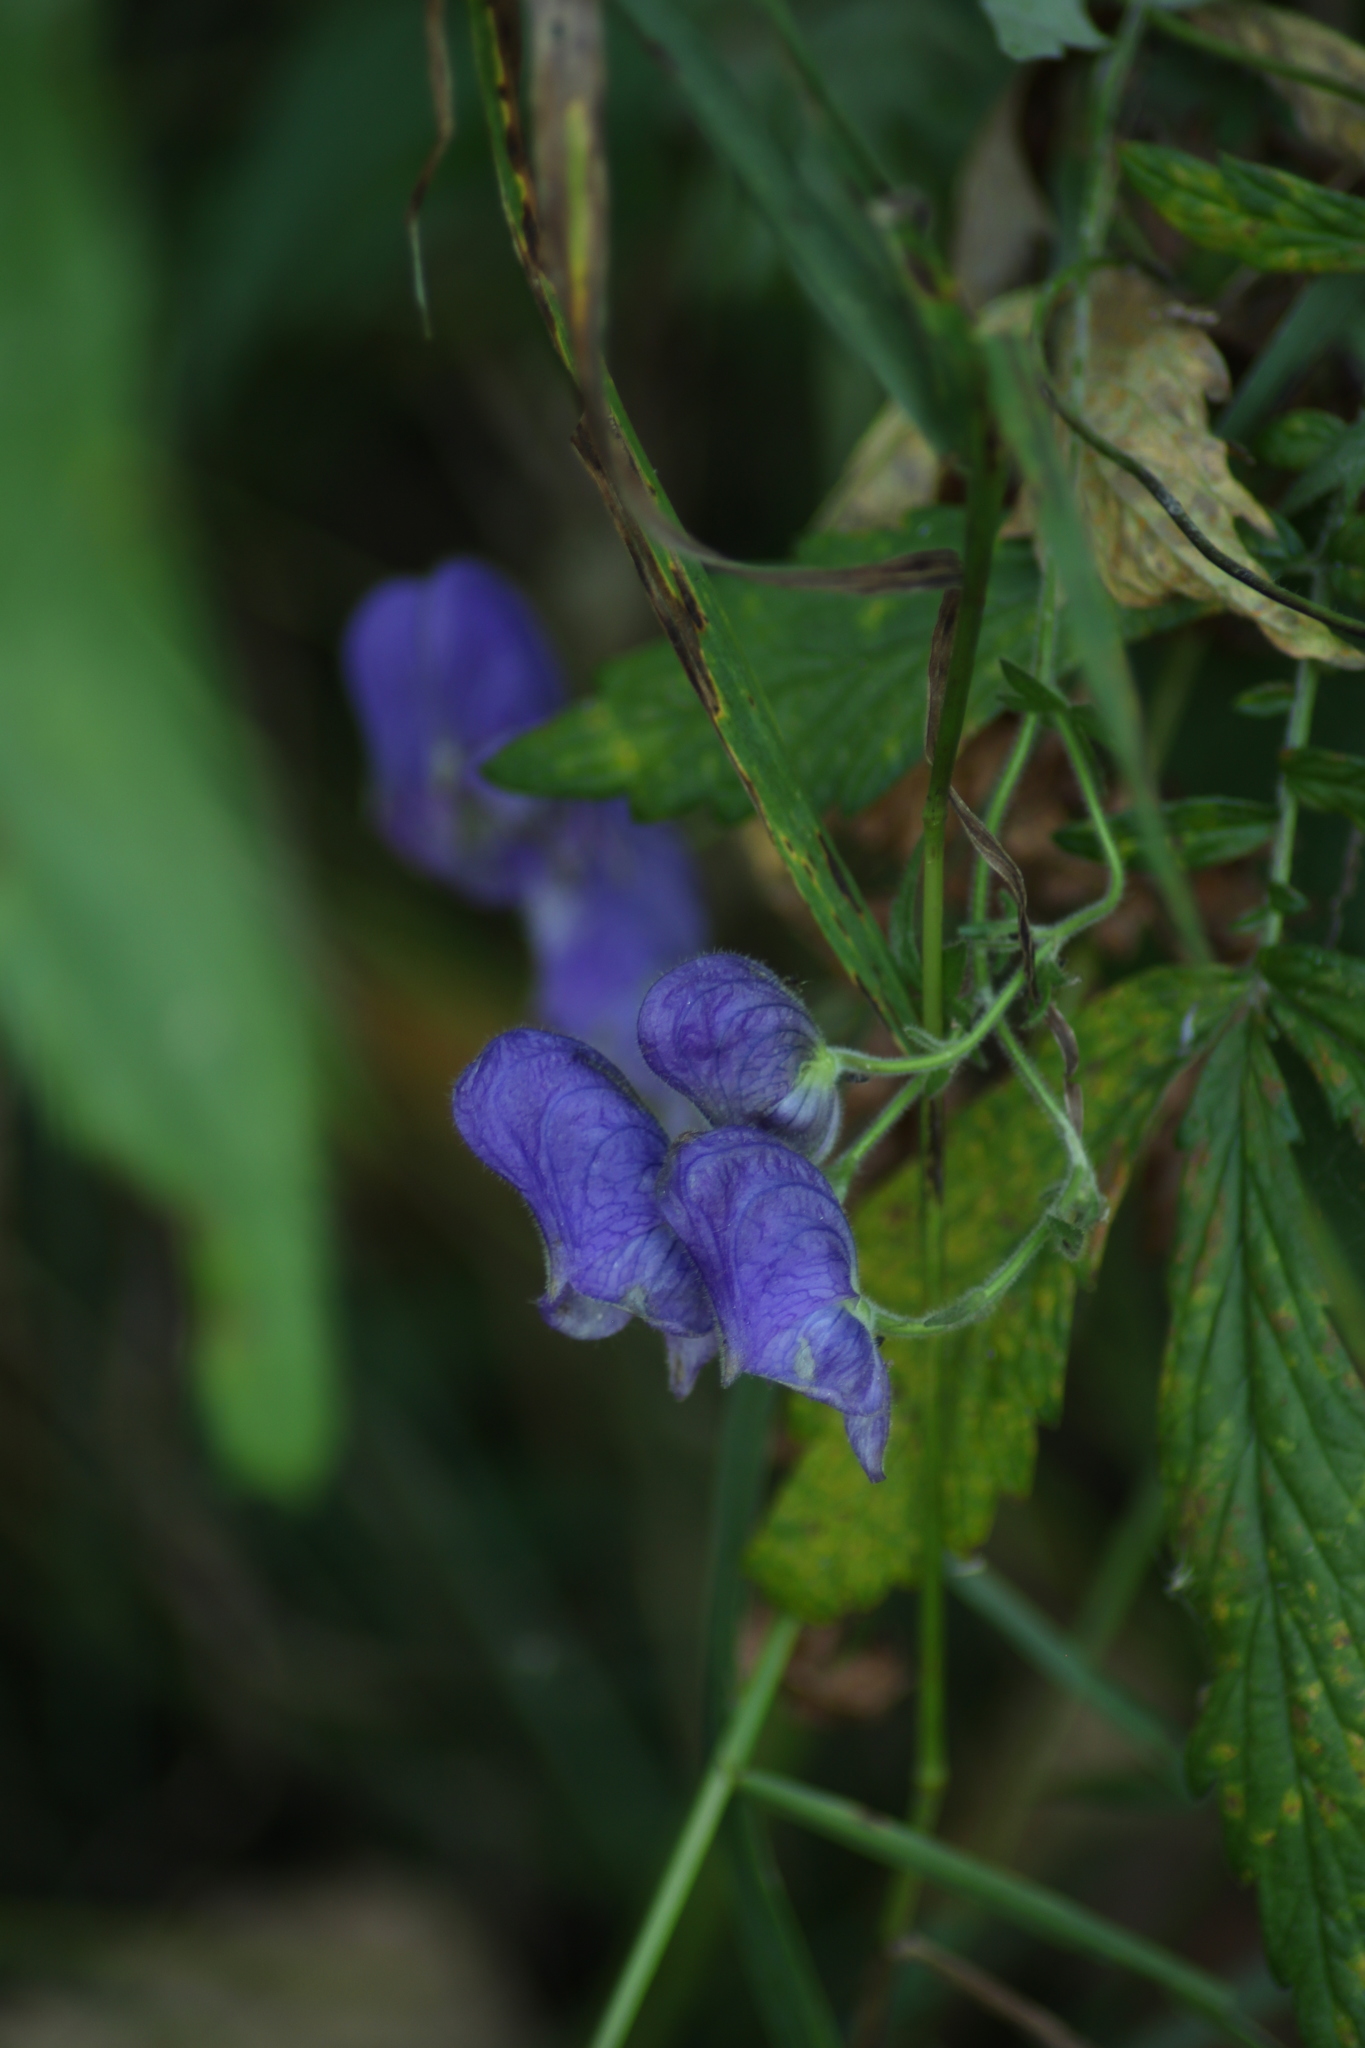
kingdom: Plantae
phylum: Tracheophyta
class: Magnoliopsida
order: Ranunculales
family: Ranunculaceae
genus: Aconitum
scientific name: Aconitum volubile
